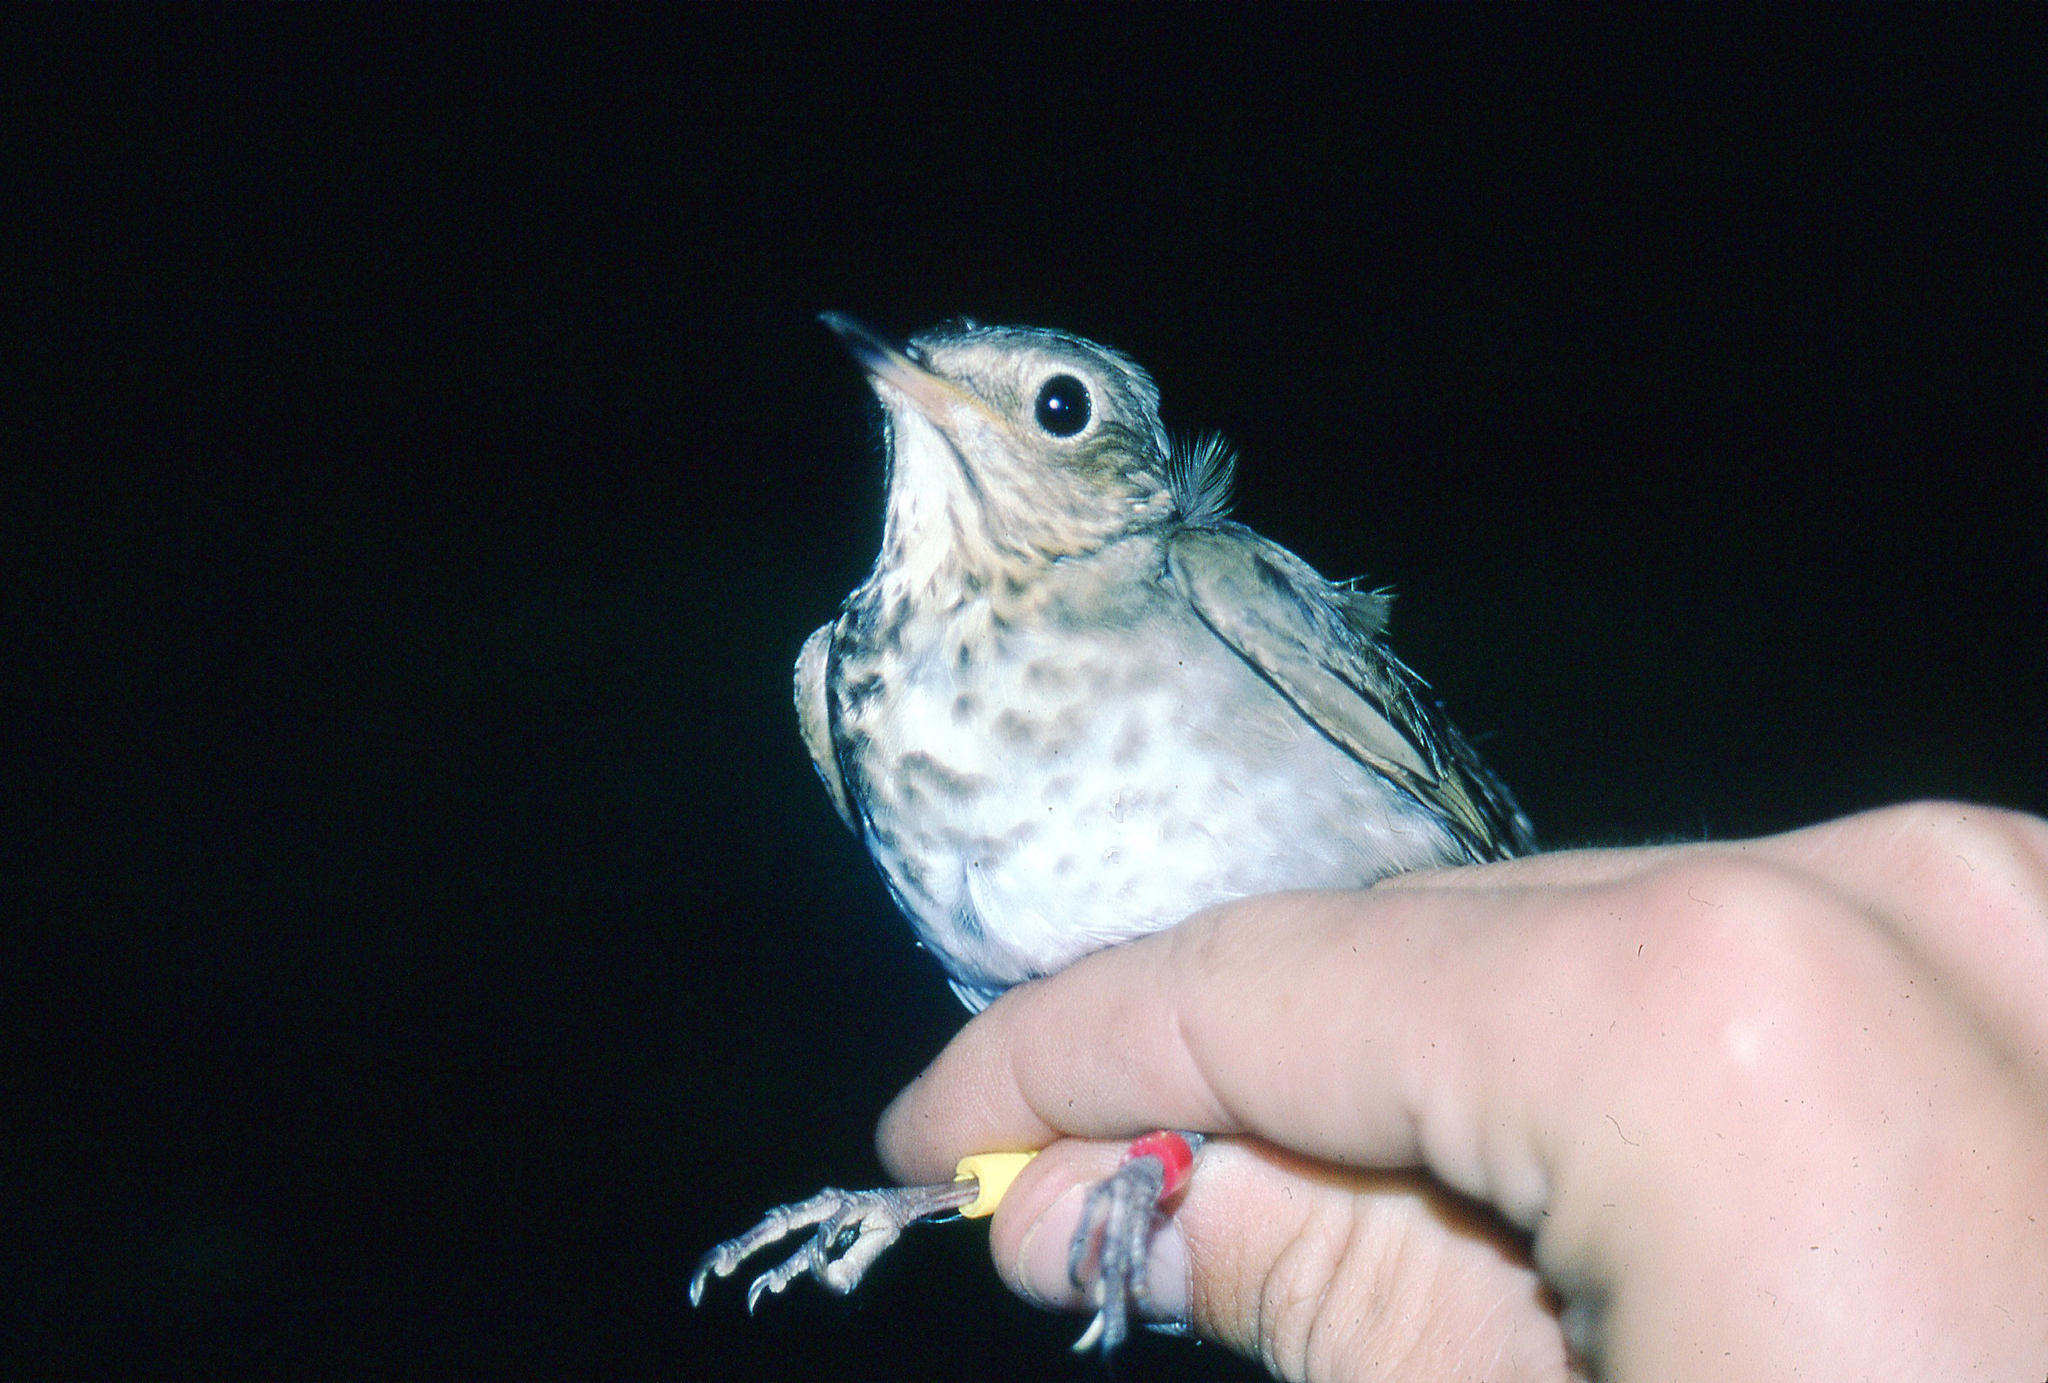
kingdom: Animalia
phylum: Chordata
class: Aves
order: Passeriformes
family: Turdidae
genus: Catharus
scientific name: Catharus ustulatus
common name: Swainson's thrush
